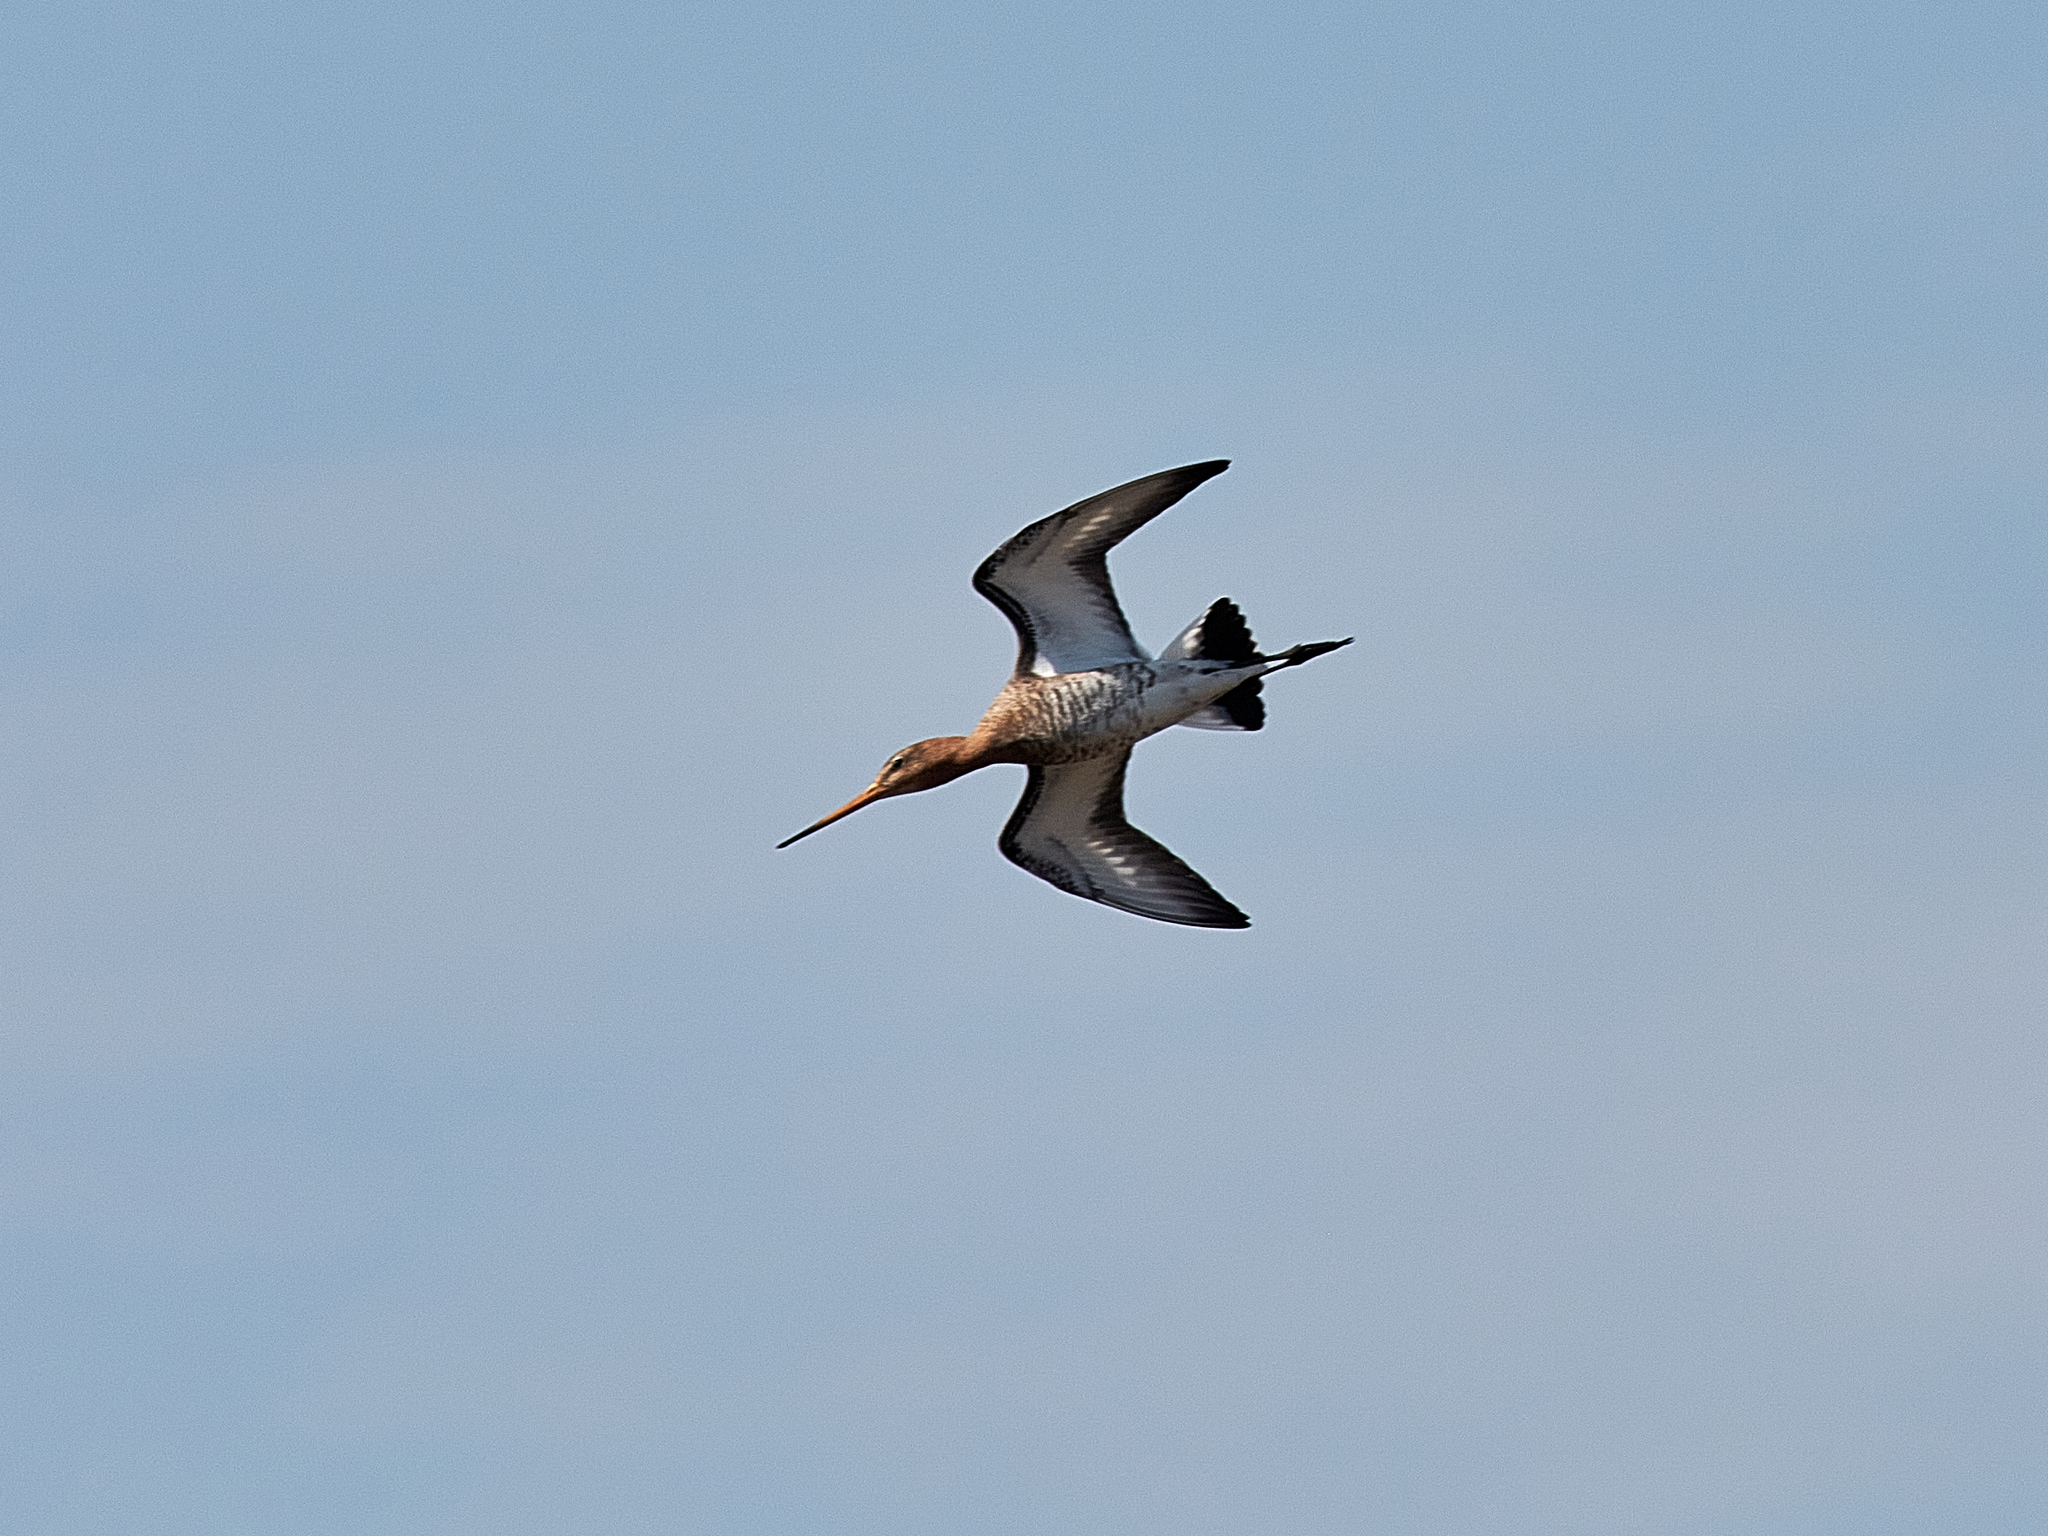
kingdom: Animalia
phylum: Chordata
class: Aves
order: Charadriiformes
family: Scolopacidae
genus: Limosa
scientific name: Limosa limosa
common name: Black-tailed godwit
